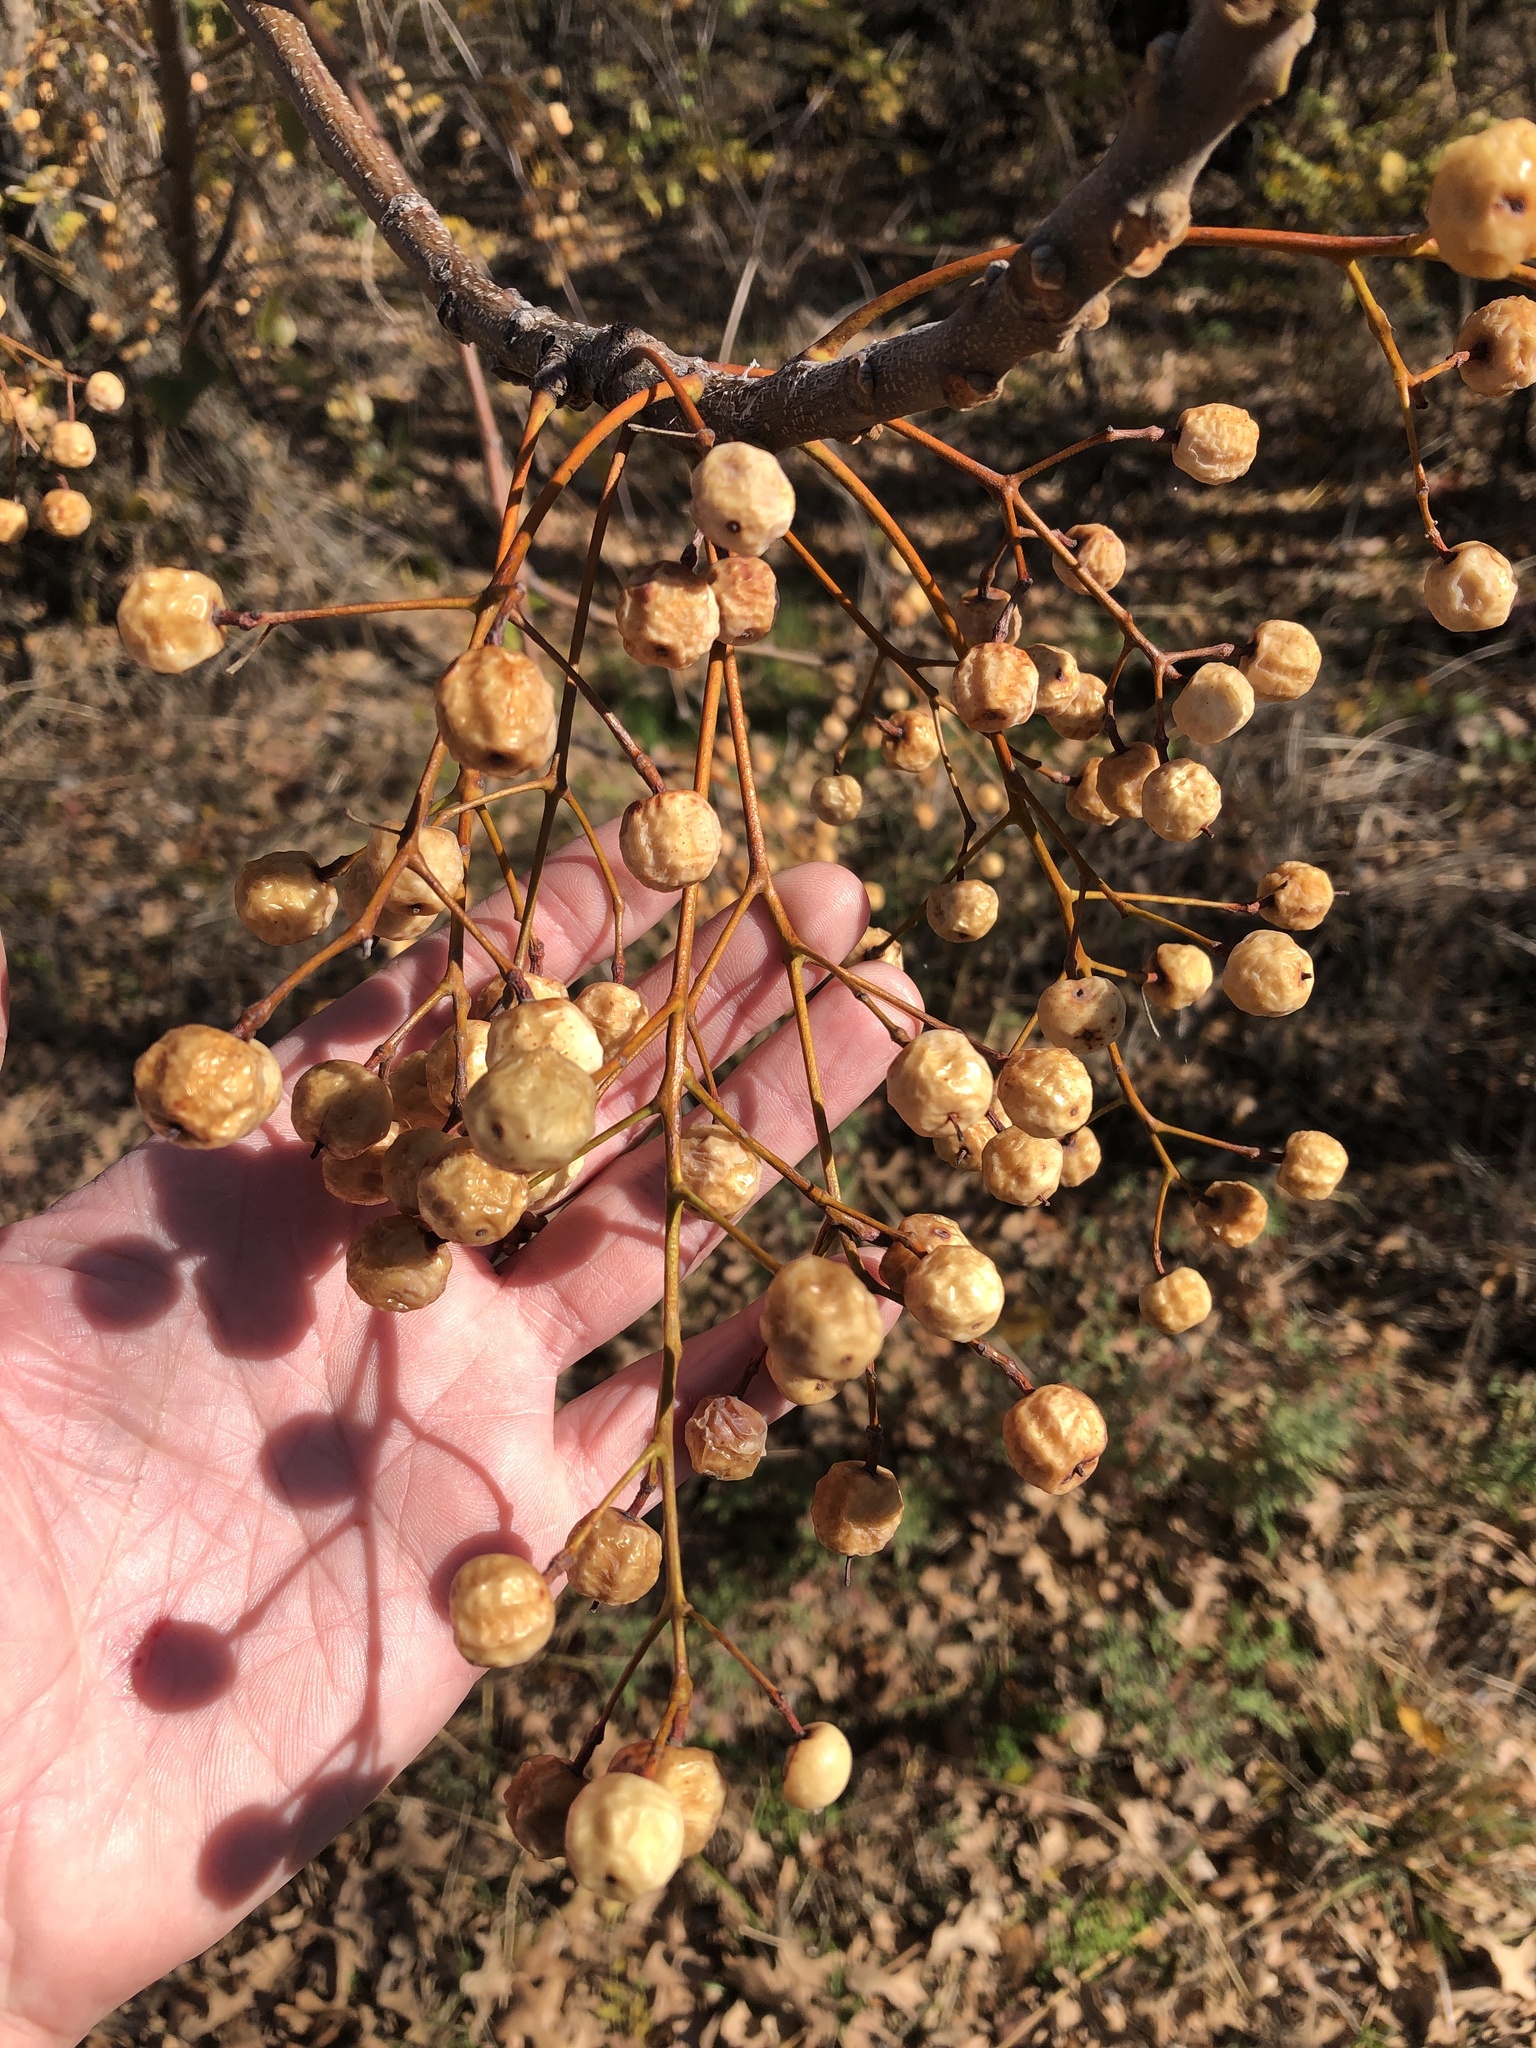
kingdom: Plantae
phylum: Tracheophyta
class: Magnoliopsida
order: Sapindales
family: Meliaceae
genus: Melia
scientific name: Melia azedarach
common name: Chinaberrytree
